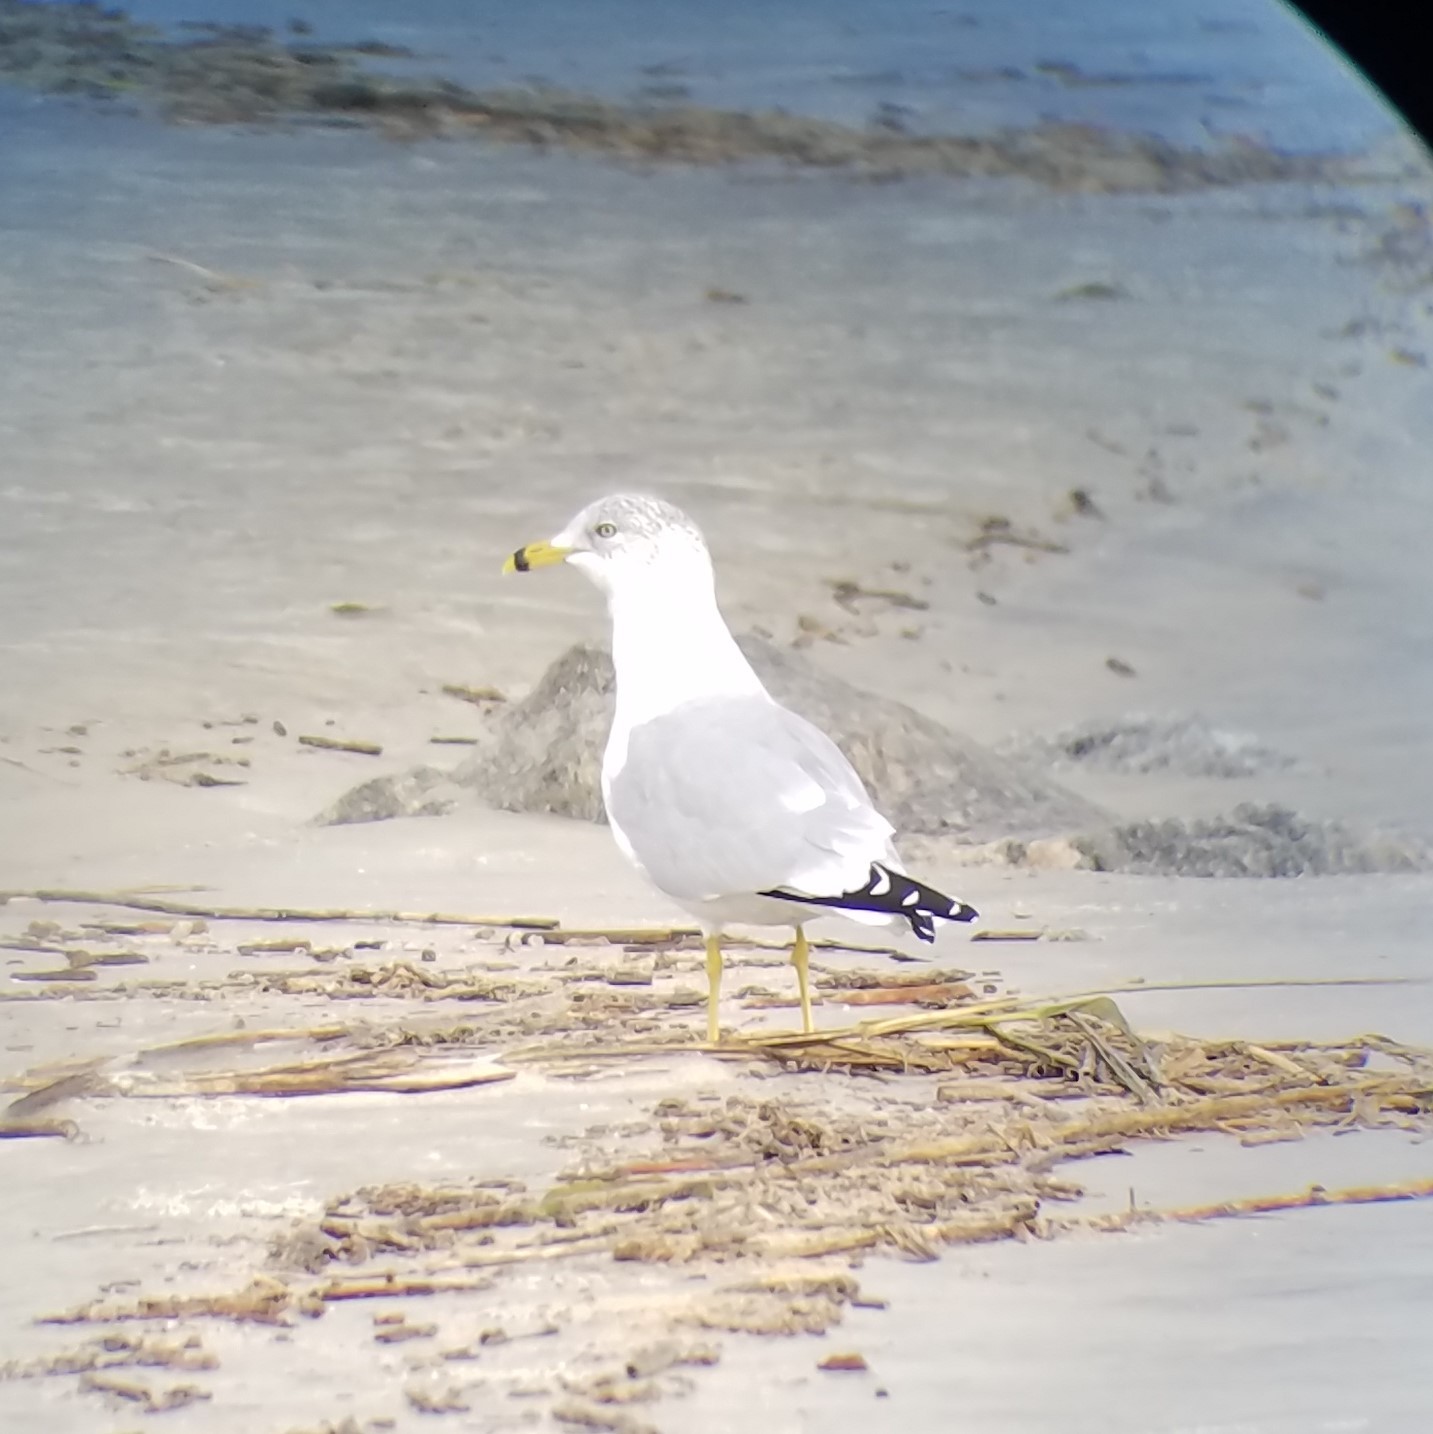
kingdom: Animalia
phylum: Chordata
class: Aves
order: Charadriiformes
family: Laridae
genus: Larus
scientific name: Larus delawarensis
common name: Ring-billed gull
